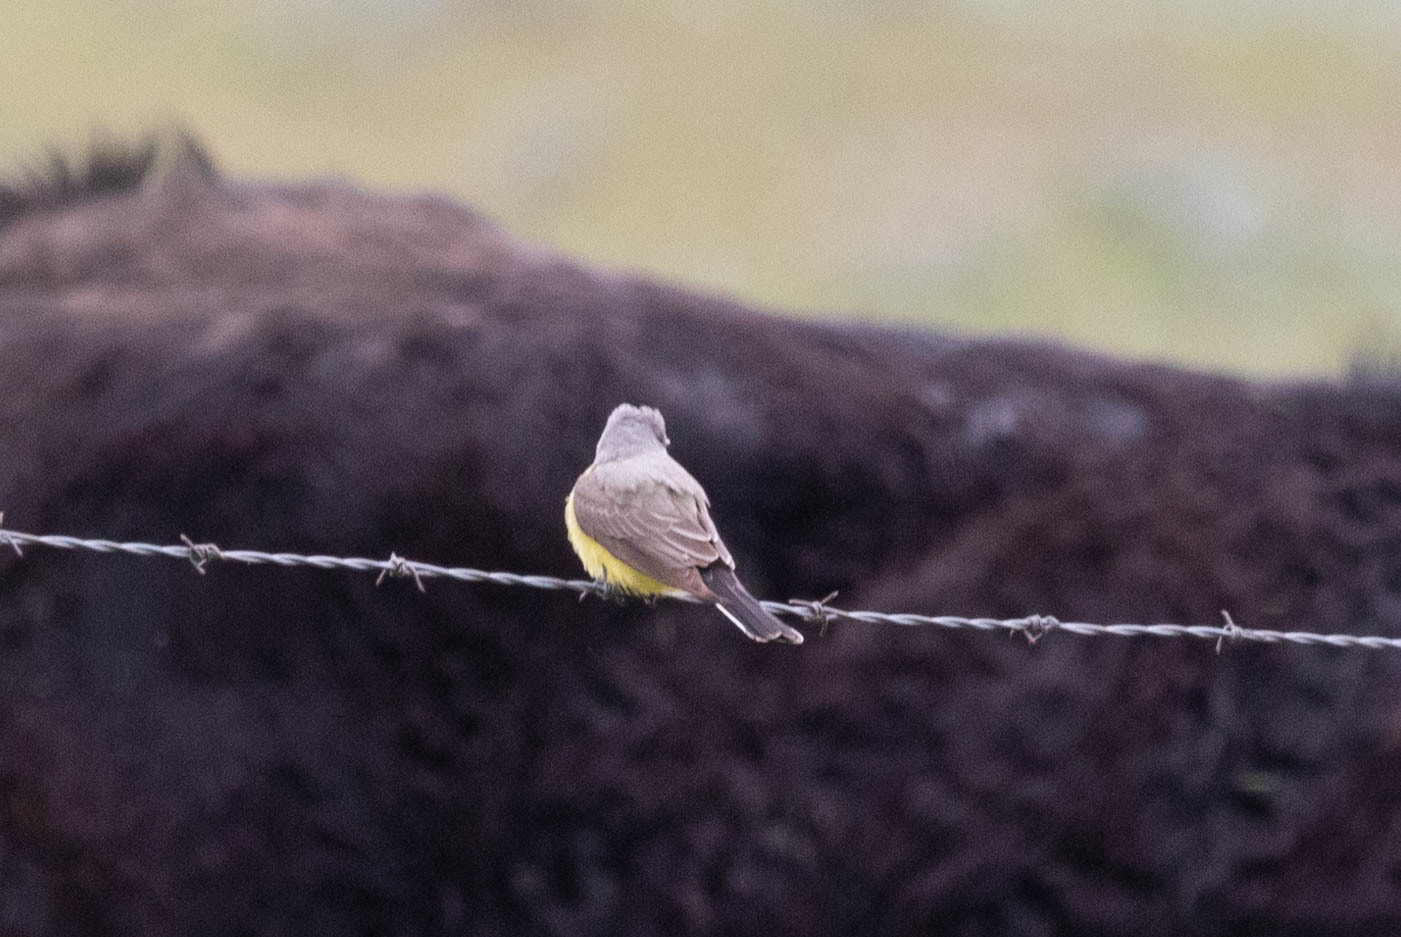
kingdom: Animalia
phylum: Chordata
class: Aves
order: Passeriformes
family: Tyrannidae
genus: Tyrannus
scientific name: Tyrannus verticalis
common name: Western kingbird
